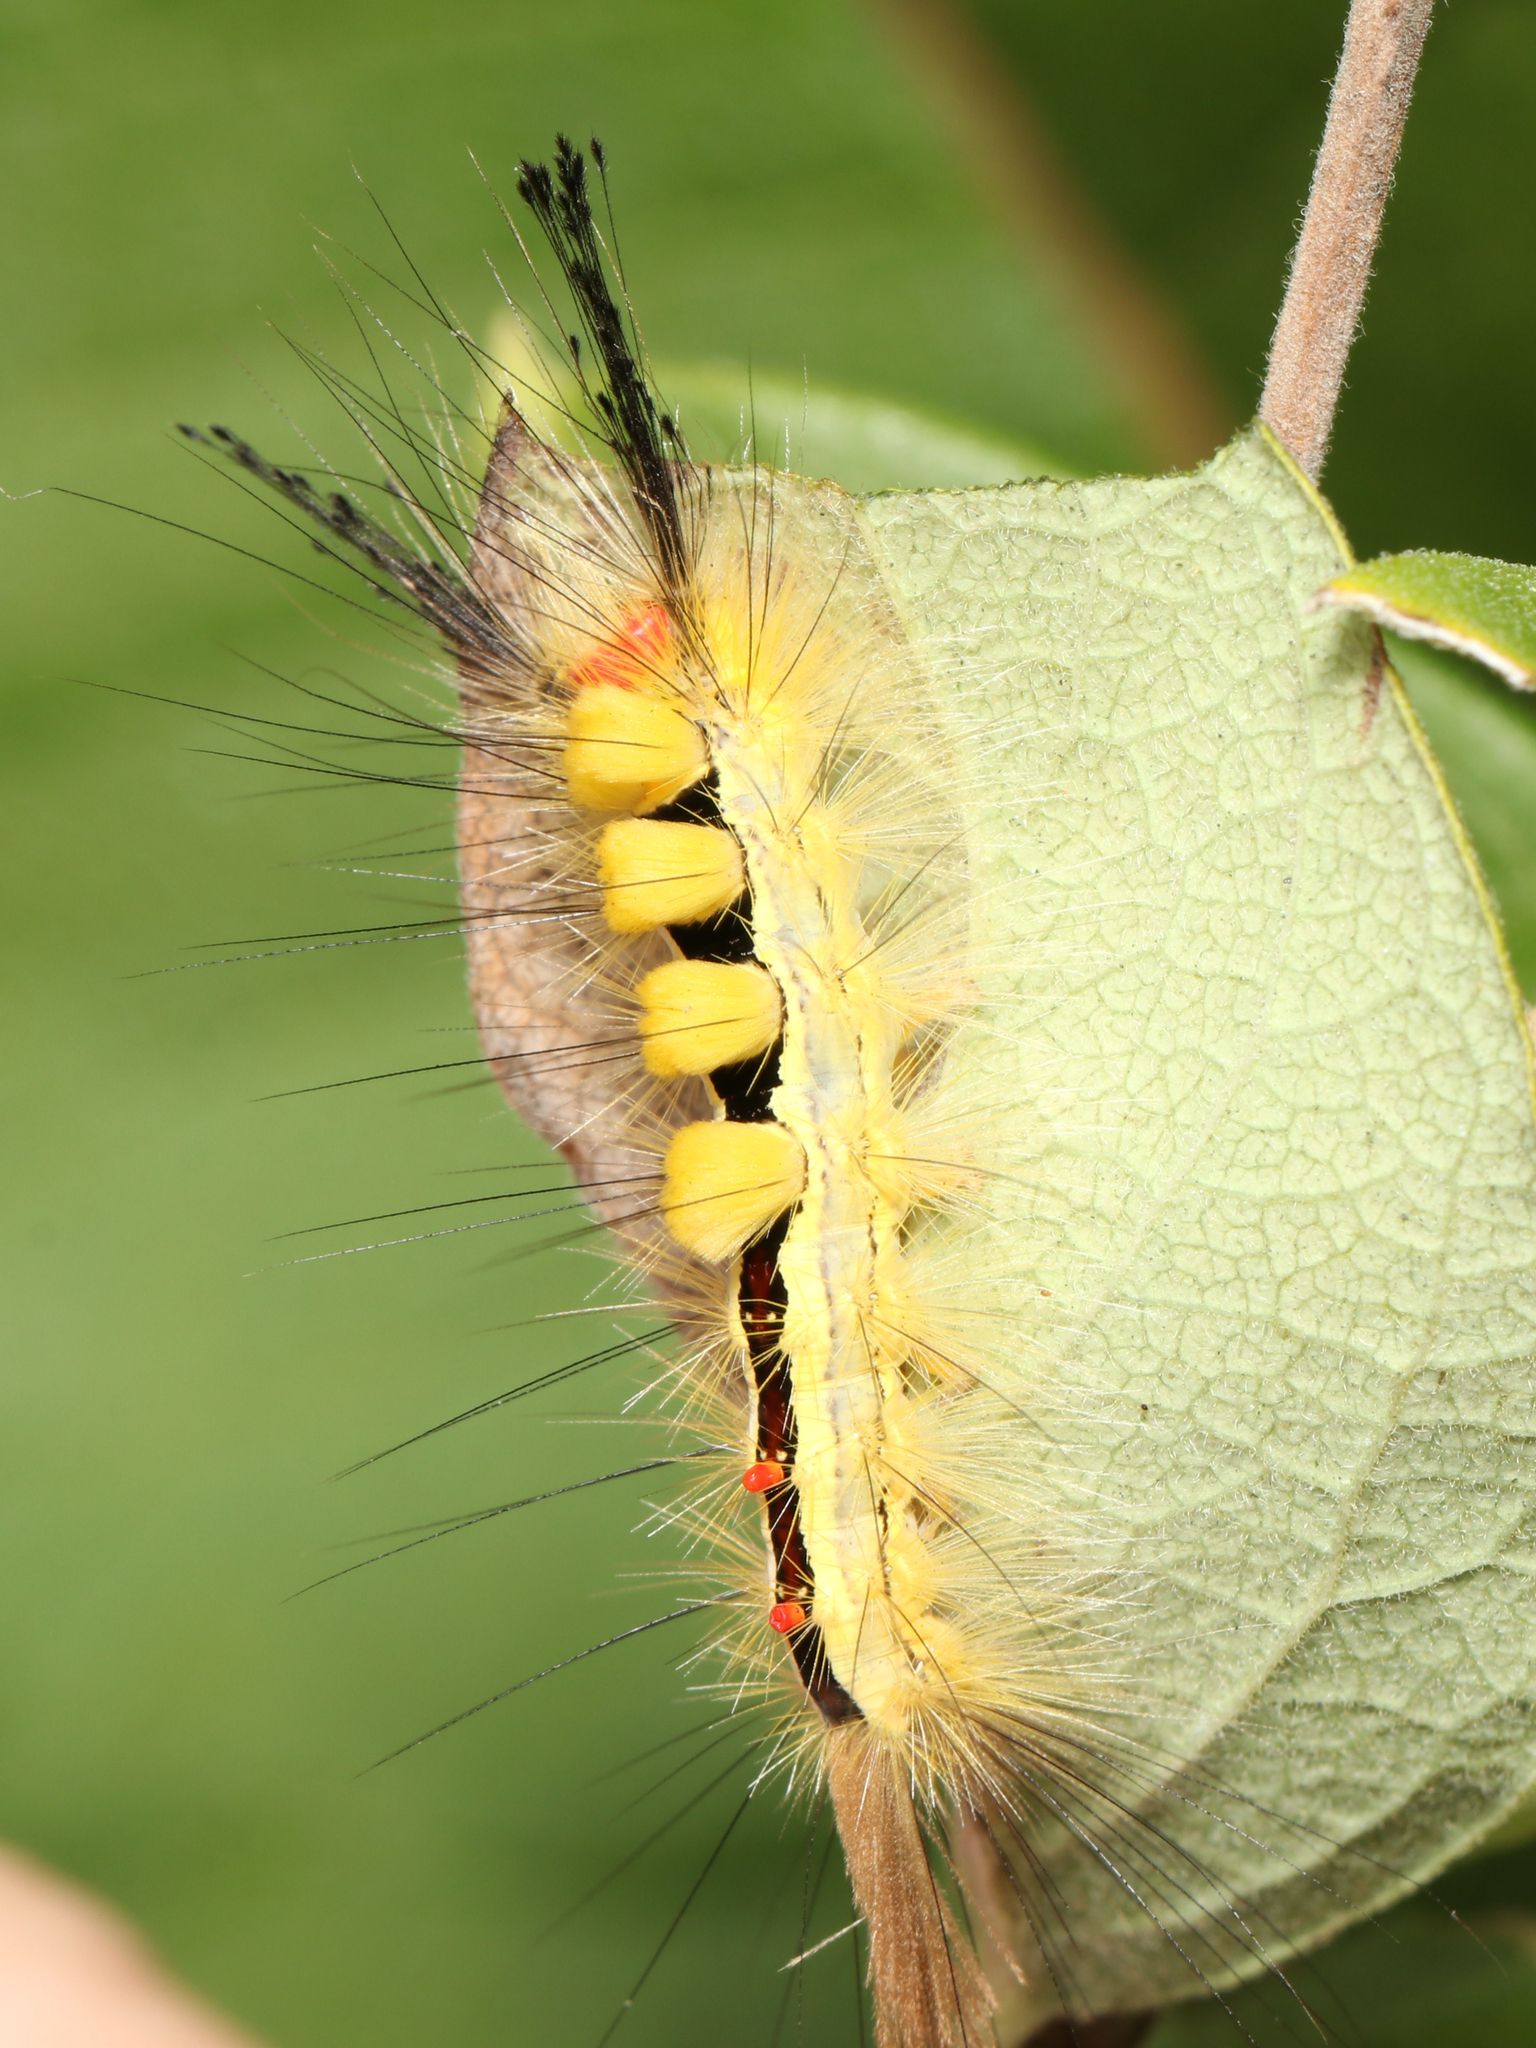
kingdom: Animalia
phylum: Arthropoda
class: Insecta
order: Lepidoptera
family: Erebidae
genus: Orgyia
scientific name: Orgyia leucostigma
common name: White-marked tussock moth
